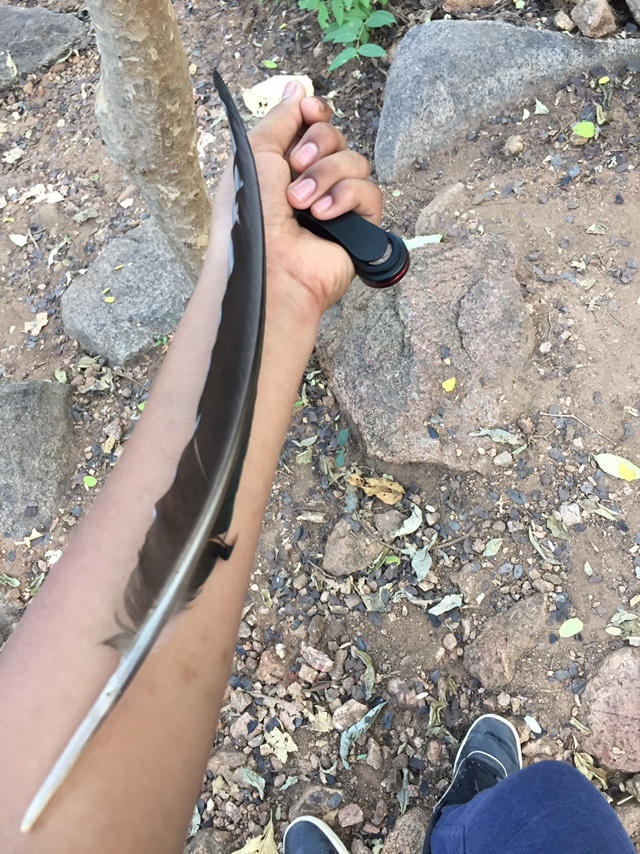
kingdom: Animalia
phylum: Chordata
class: Aves
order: Galliformes
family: Phasianidae
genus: Pavo
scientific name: Pavo cristatus
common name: Indian peafowl
